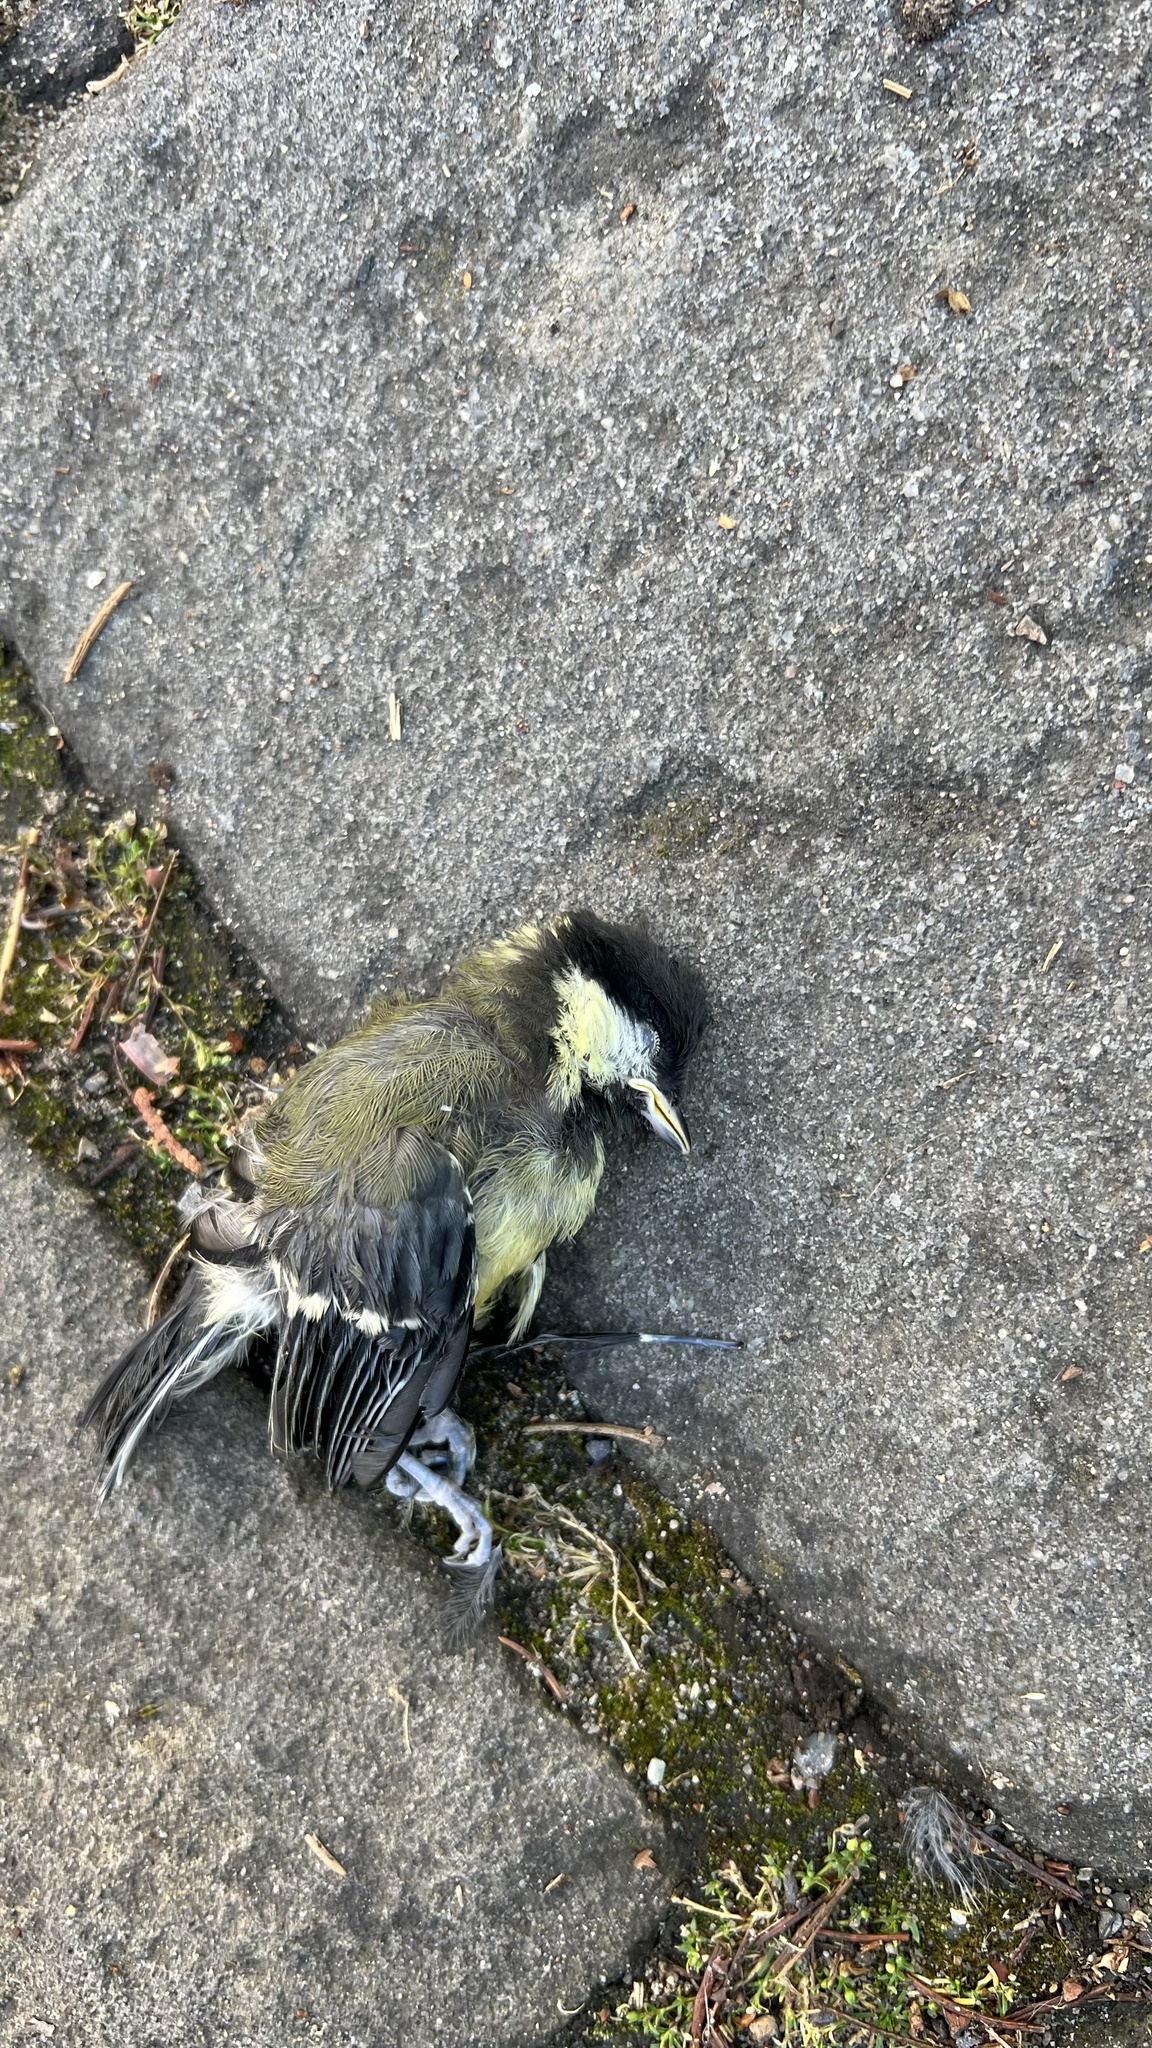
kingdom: Animalia
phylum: Chordata
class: Aves
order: Passeriformes
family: Paridae
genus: Parus
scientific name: Parus major
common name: Great tit
